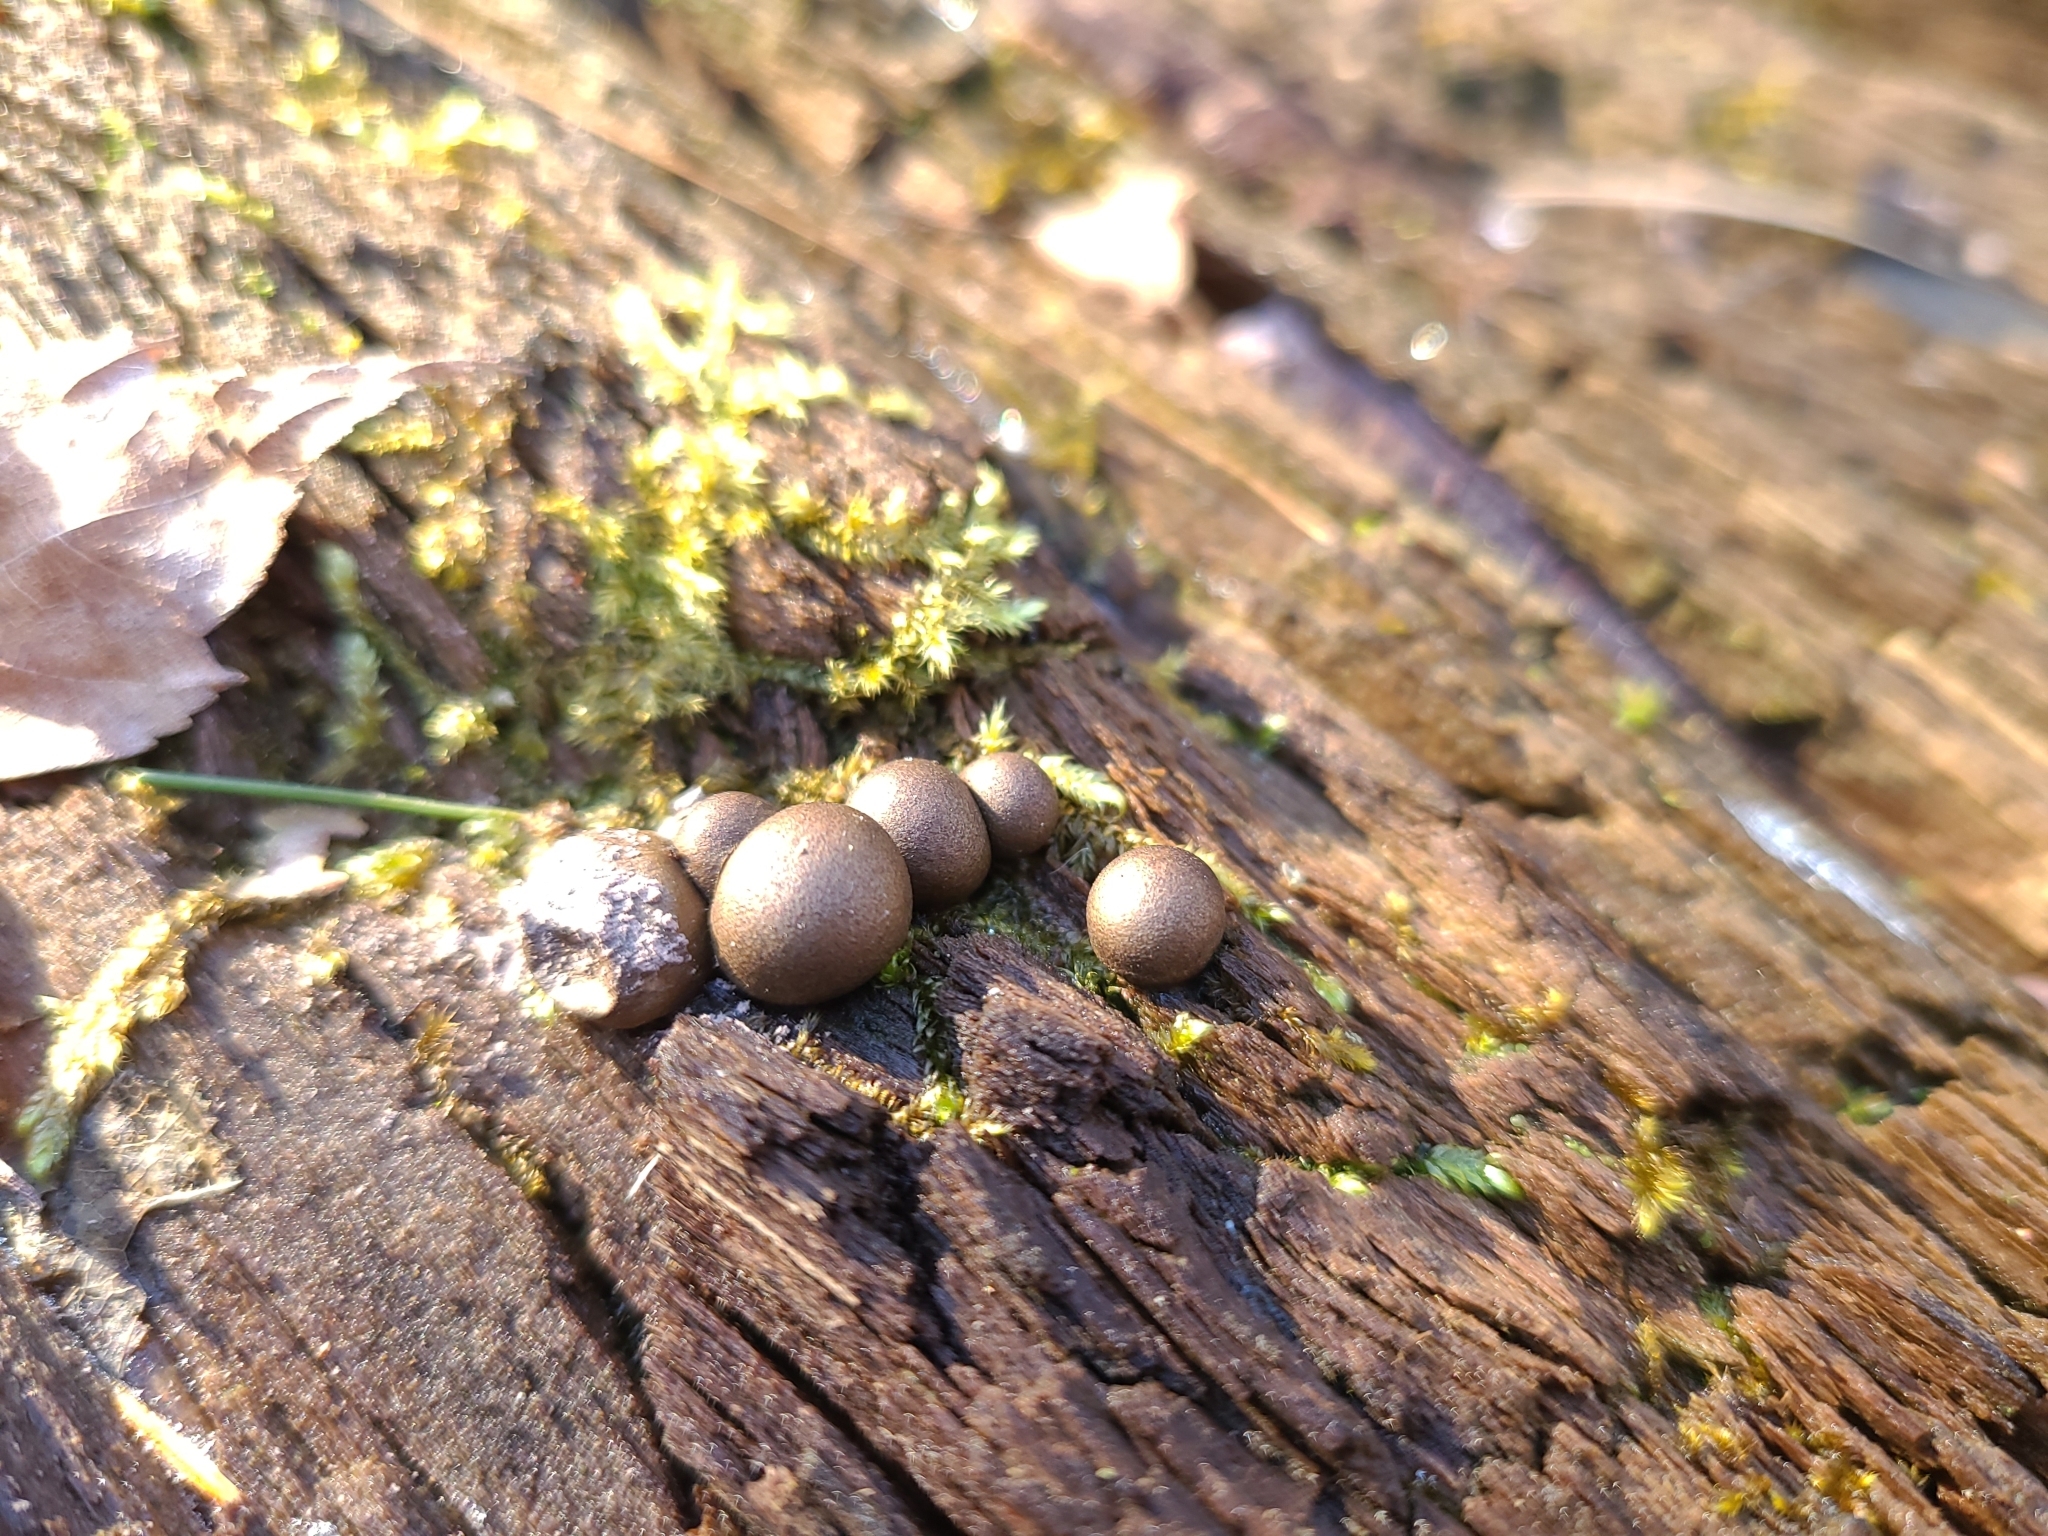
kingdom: Protozoa
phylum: Mycetozoa
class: Myxomycetes
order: Cribrariales
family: Tubiferaceae
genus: Lycogala
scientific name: Lycogala epidendrum
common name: Wolf's milk
